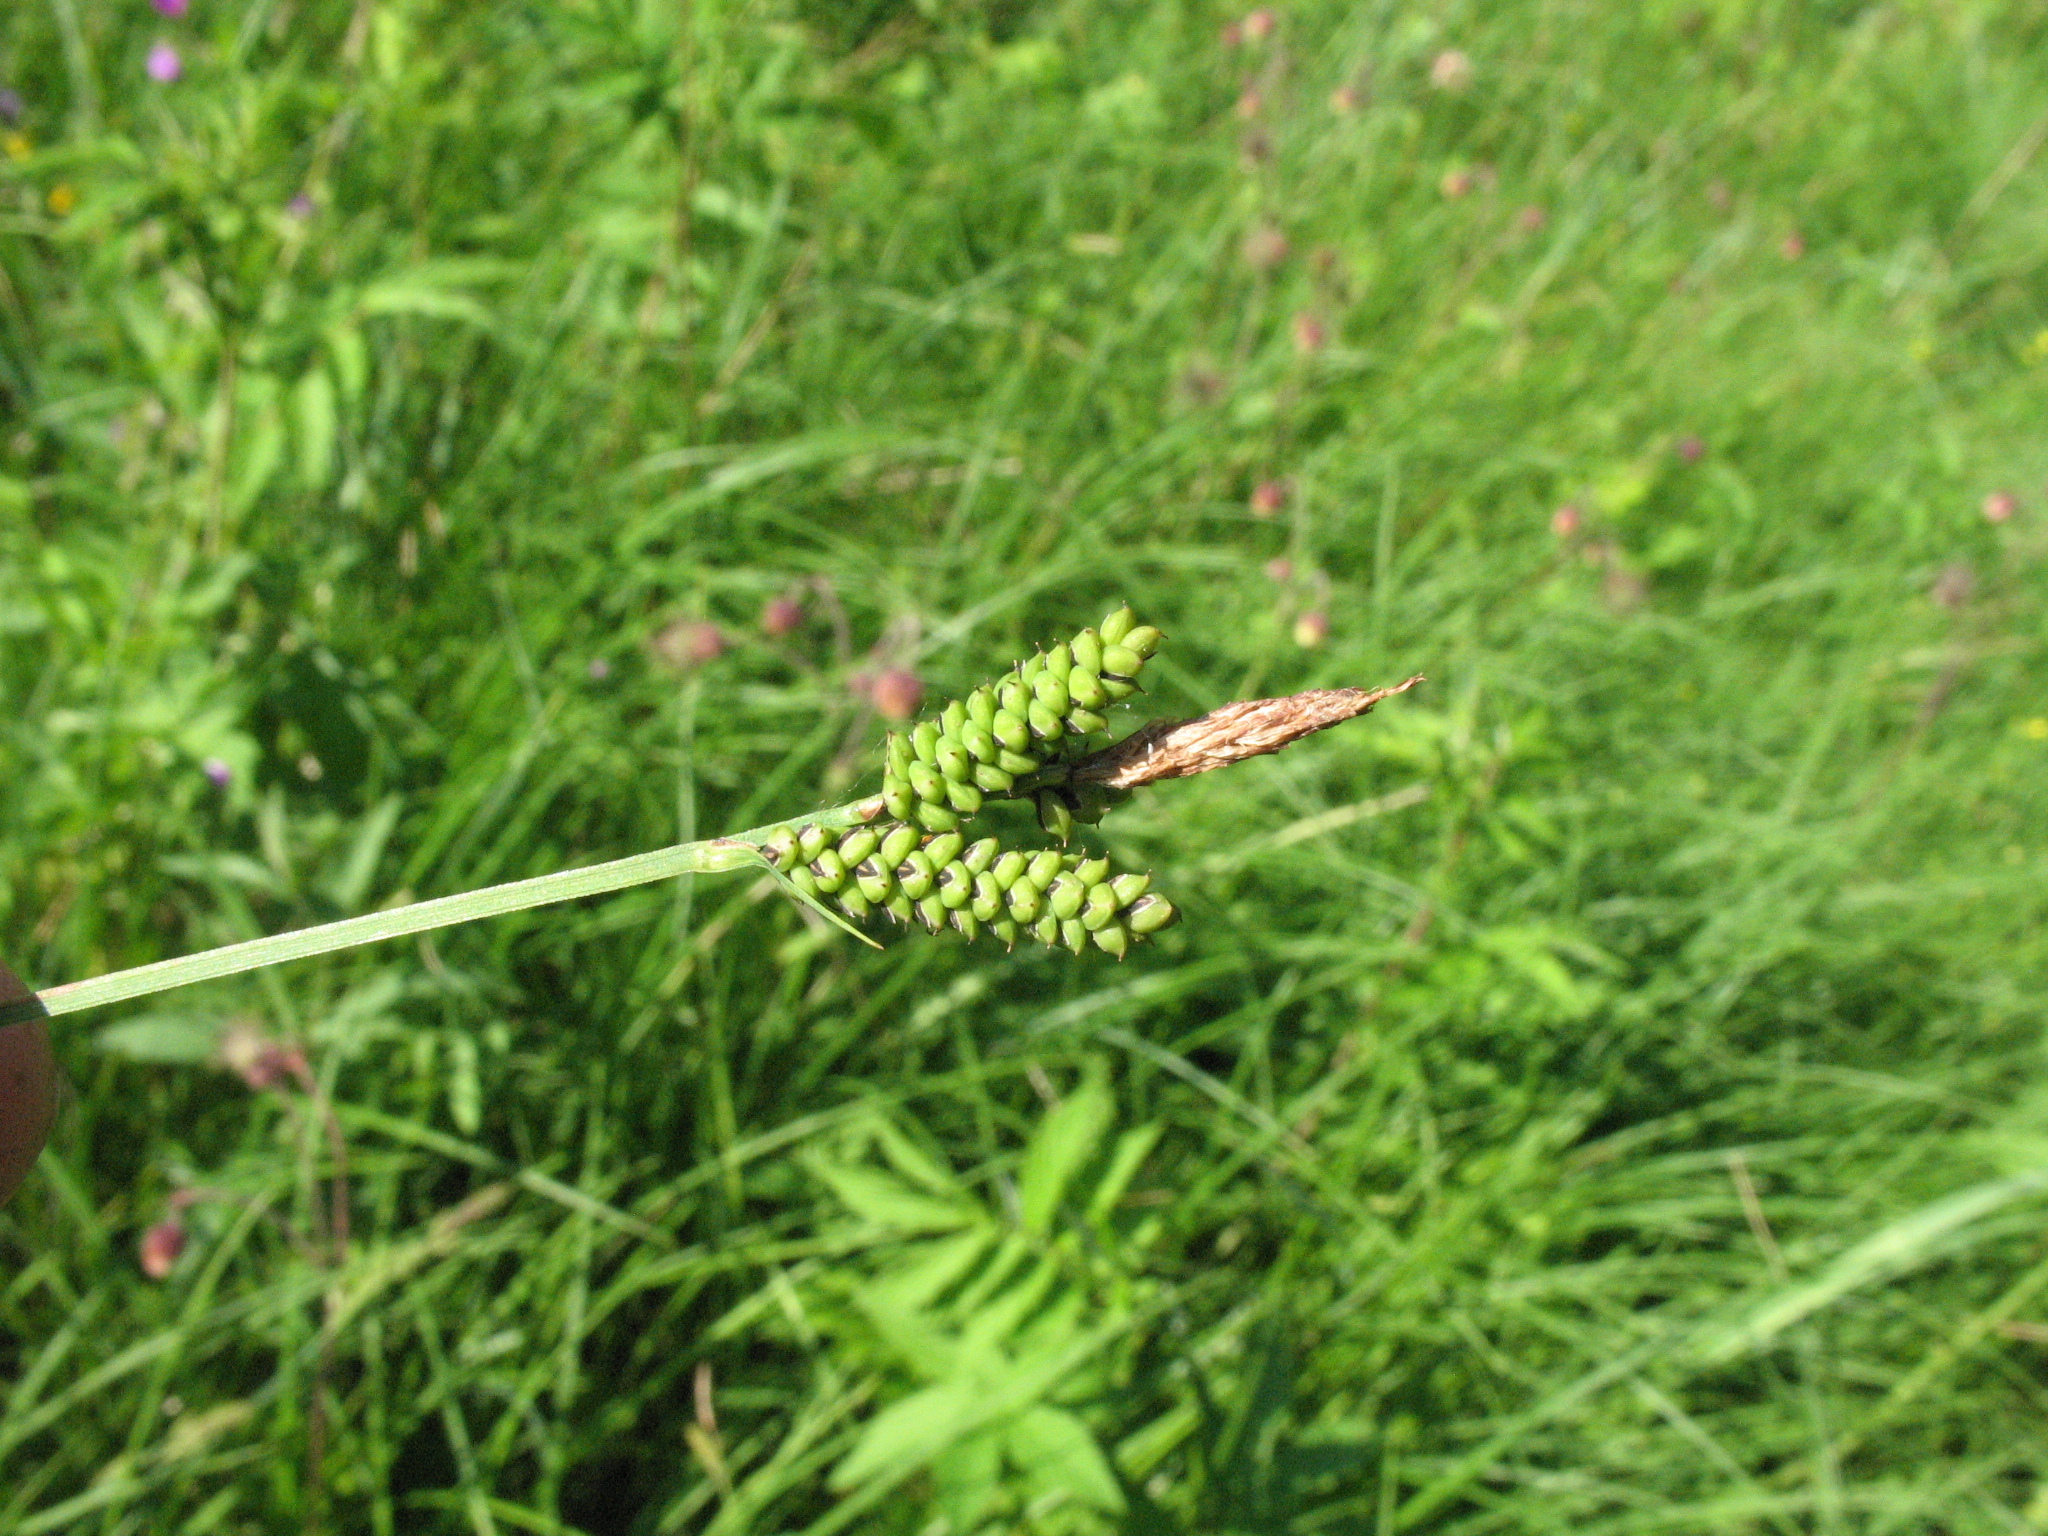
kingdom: Plantae
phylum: Tracheophyta
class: Liliopsida
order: Poales
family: Cyperaceae
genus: Carex
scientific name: Carex nigra
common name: Common sedge
